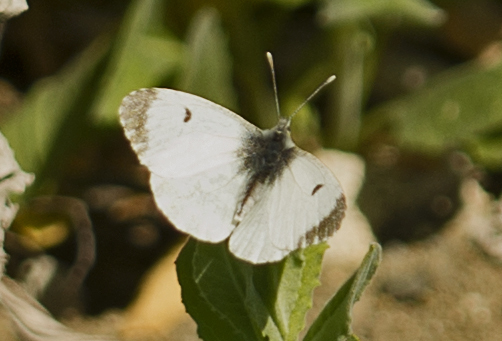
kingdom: Animalia
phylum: Arthropoda
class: Insecta
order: Lepidoptera
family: Pieridae
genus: Anthocharis
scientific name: Anthocharis cardamines
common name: Orange-tip
